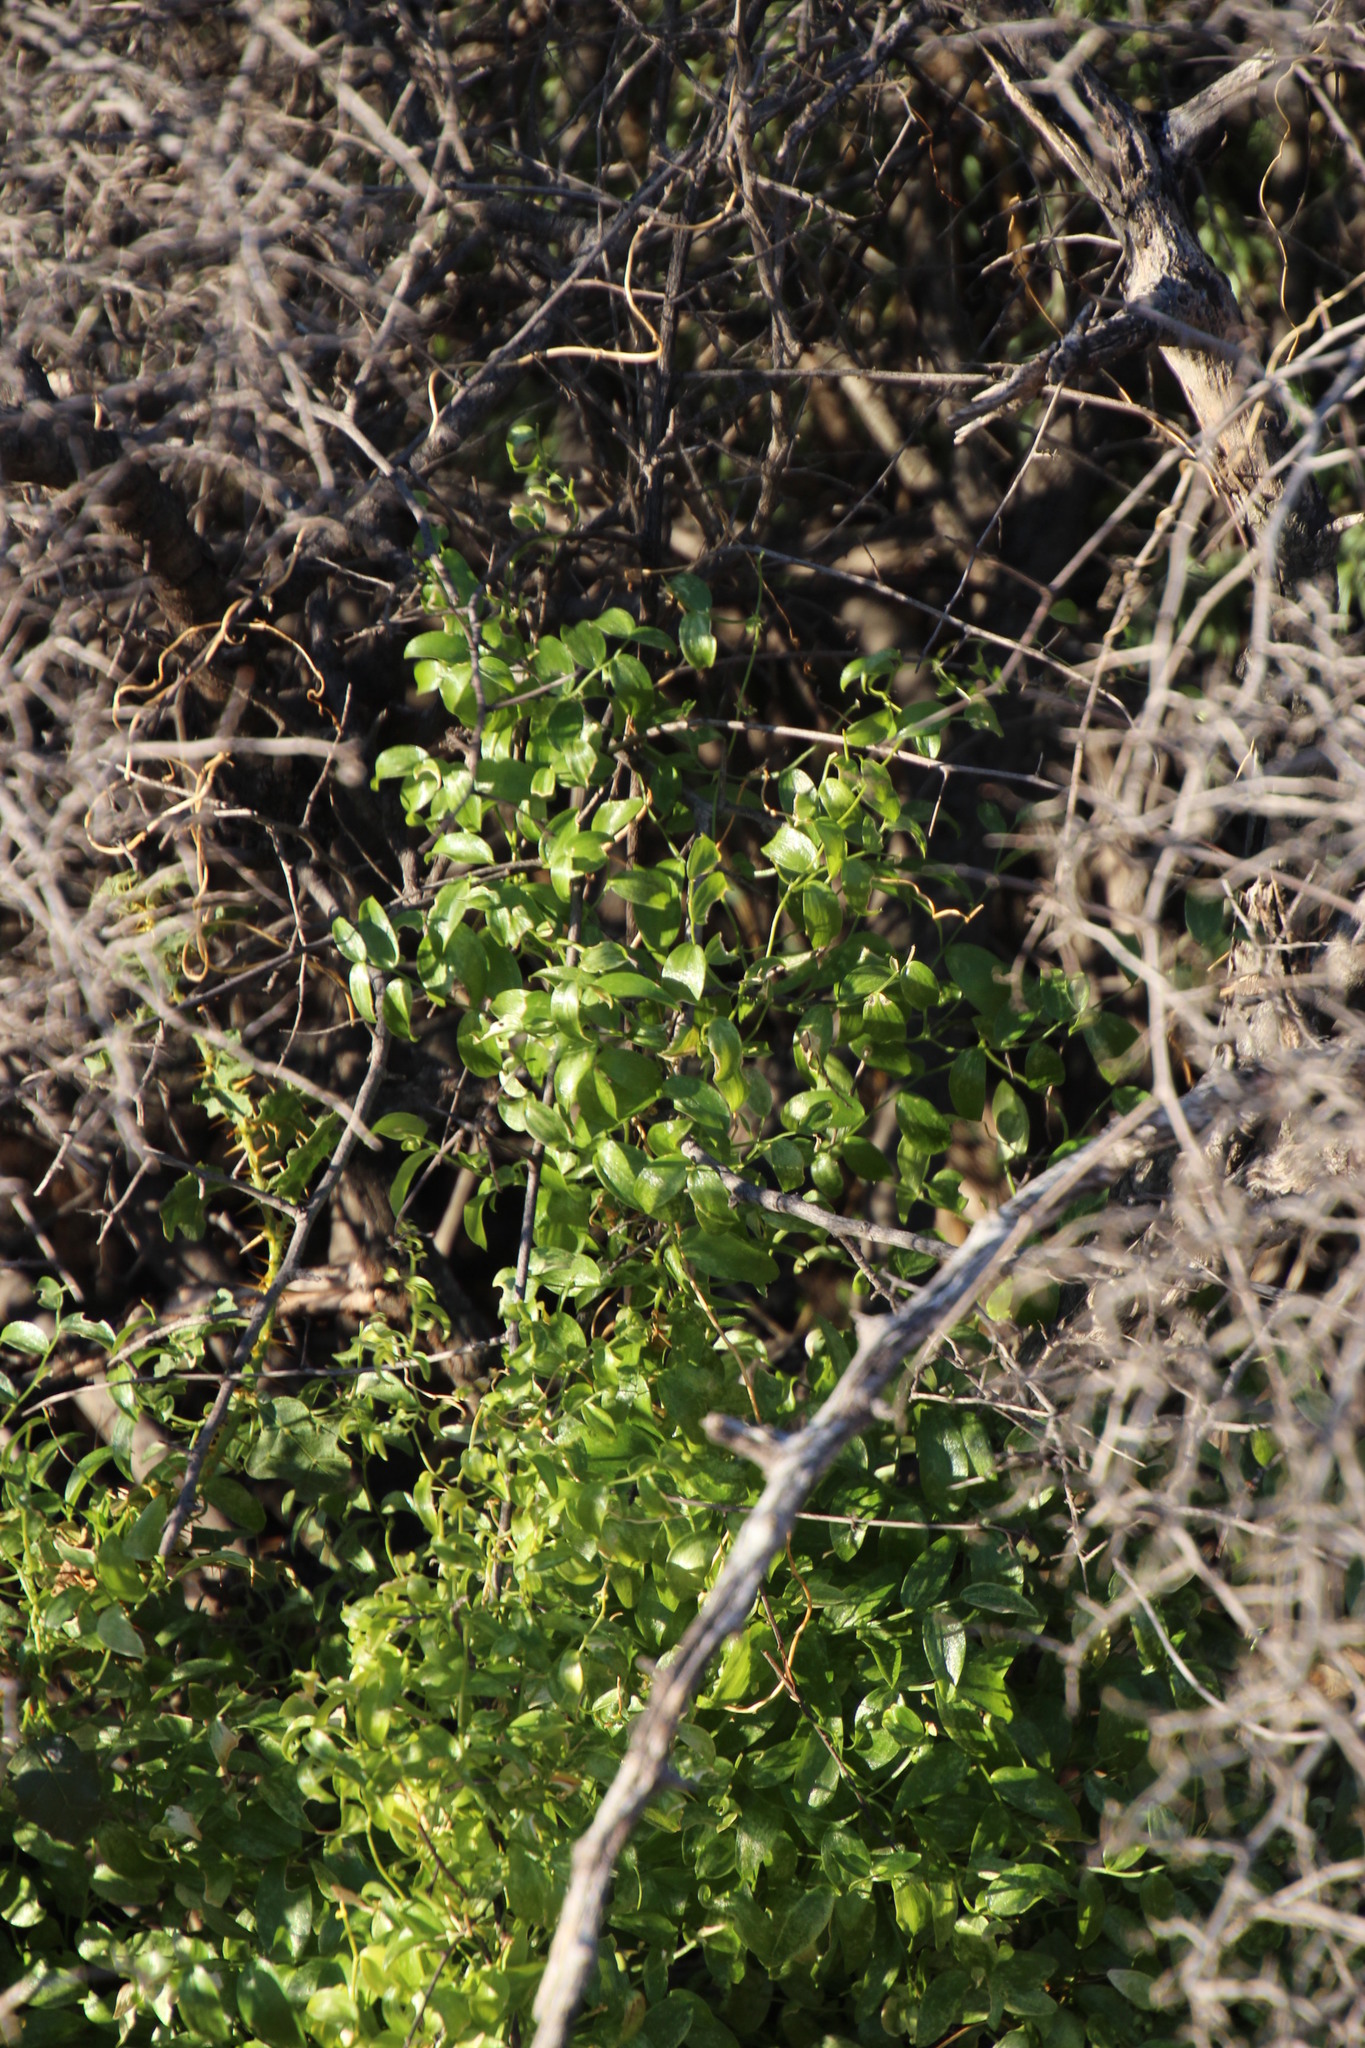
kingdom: Plantae
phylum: Tracheophyta
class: Liliopsida
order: Asparagales
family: Asparagaceae
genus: Asparagus
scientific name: Asparagus asparagoides
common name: African asparagus fern
